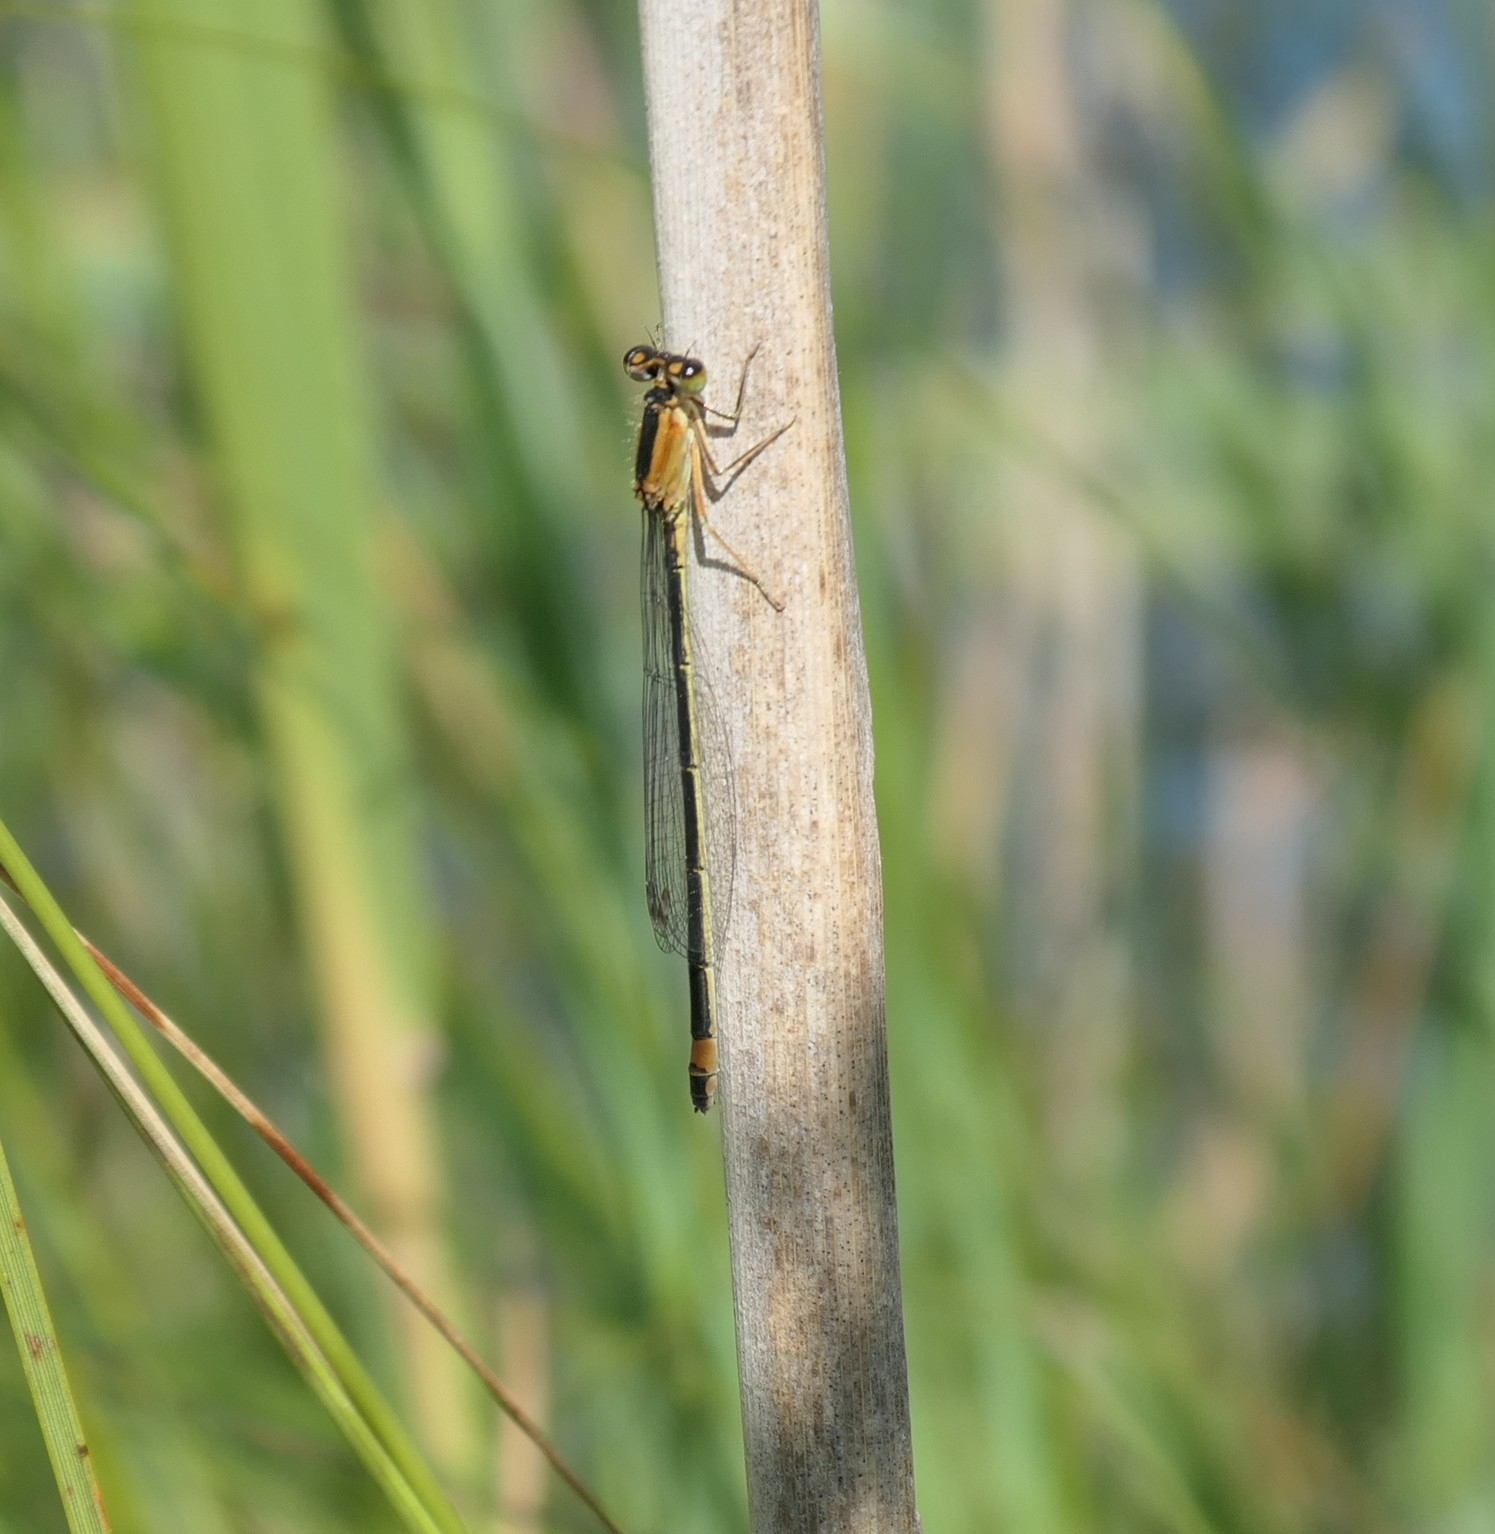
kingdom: Animalia
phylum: Arthropoda
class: Insecta
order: Odonata
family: Coenagrionidae
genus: Ischnura
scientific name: Ischnura elegans
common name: Blue-tailed damselfly
